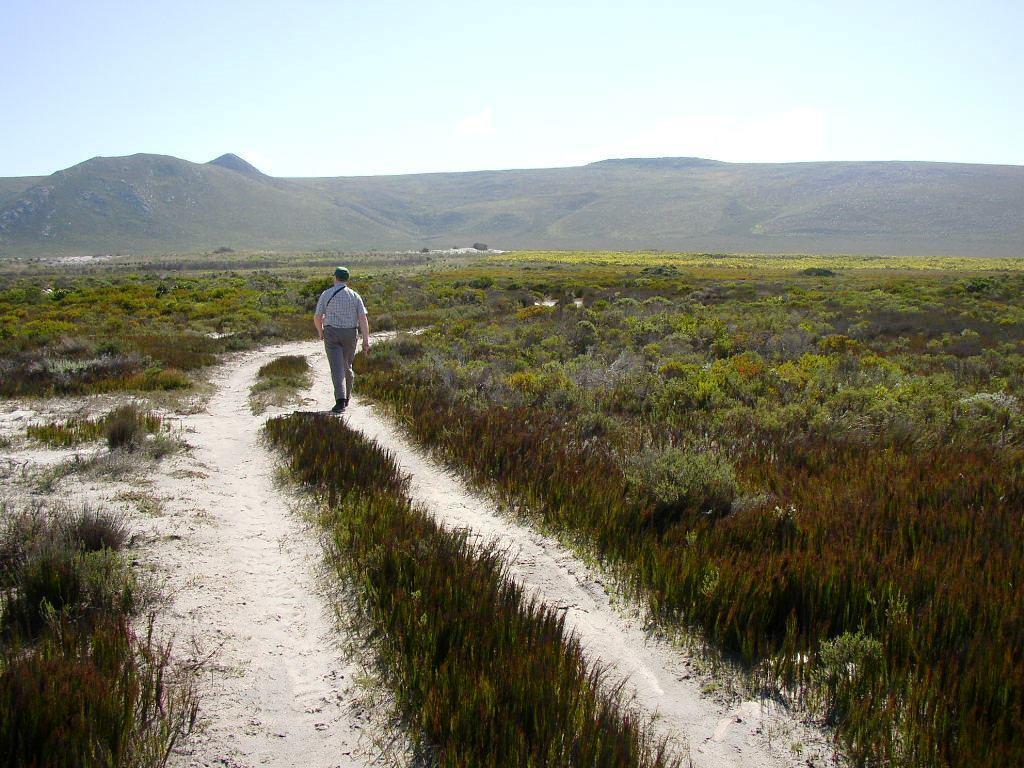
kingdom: Plantae
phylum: Tracheophyta
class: Liliopsida
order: Poales
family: Restionaceae
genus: Elegia
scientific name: Elegia microcarpa
